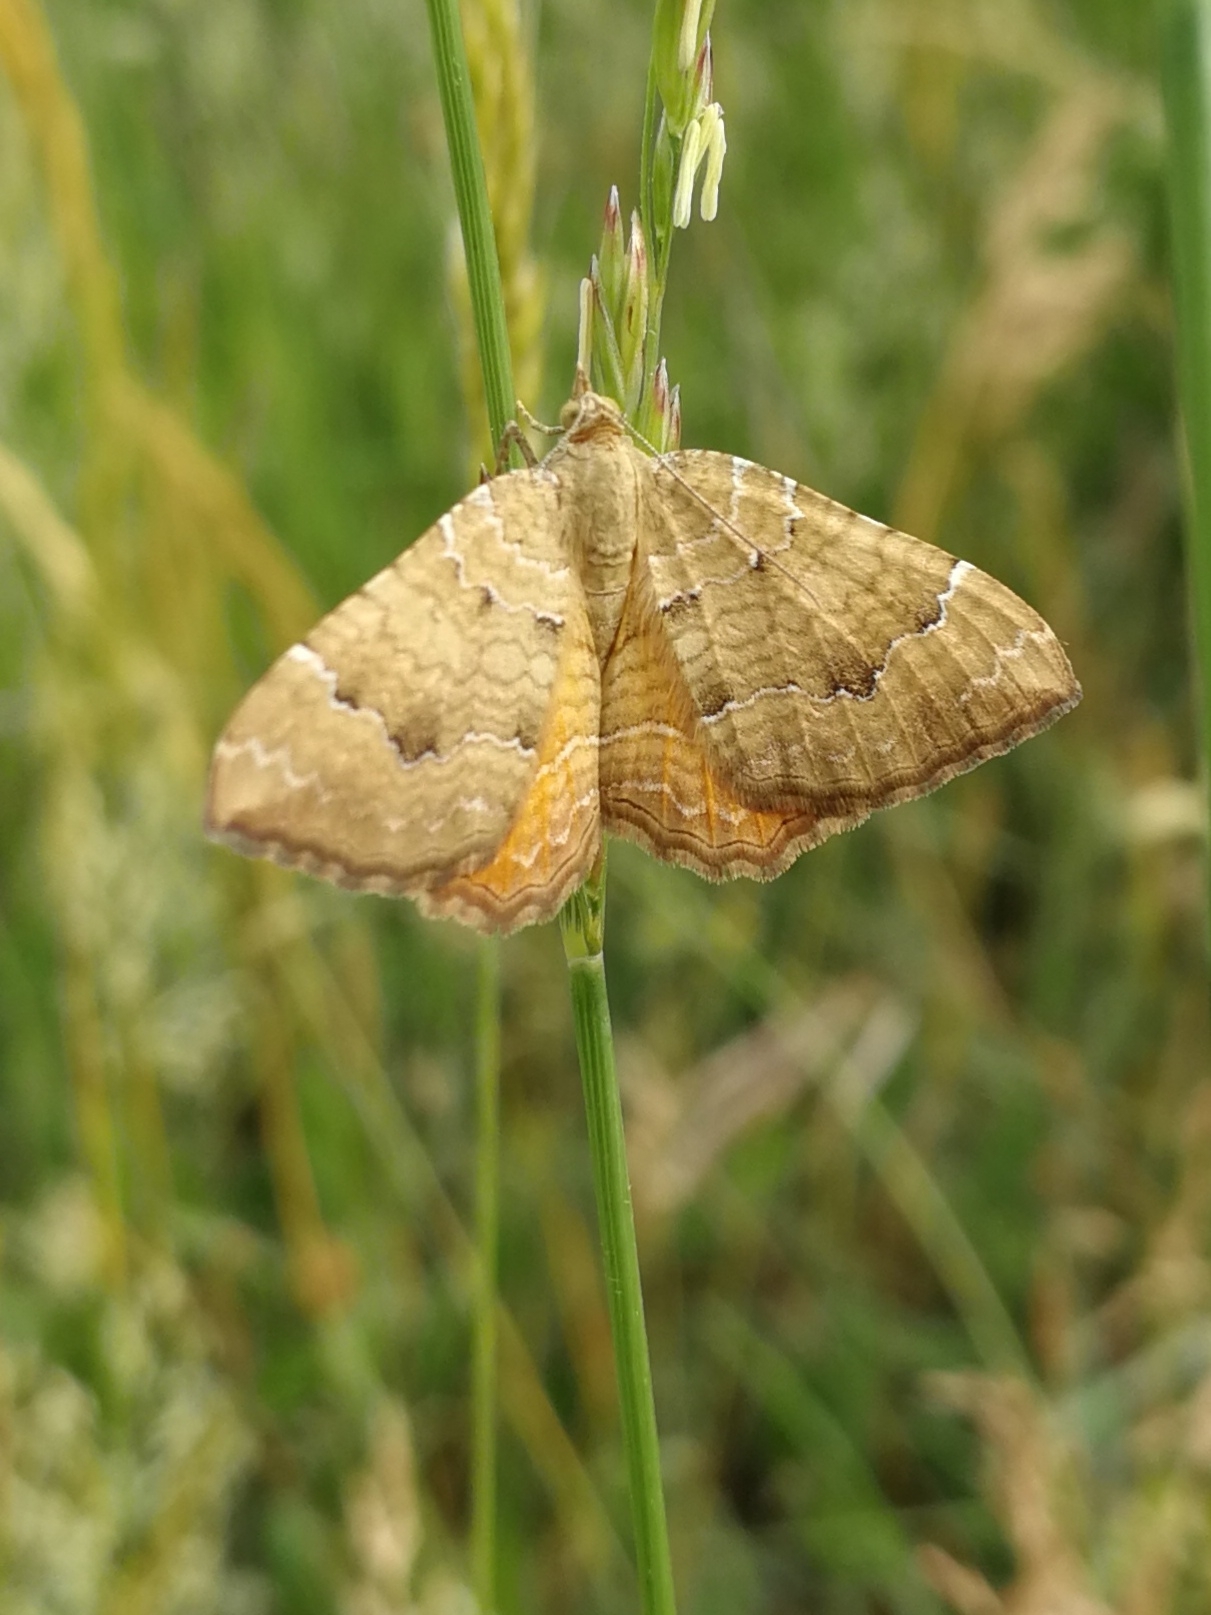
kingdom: Animalia
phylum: Arthropoda
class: Insecta
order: Lepidoptera
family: Geometridae
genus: Camptogramma
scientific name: Camptogramma bilineata
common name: Yellow shell
